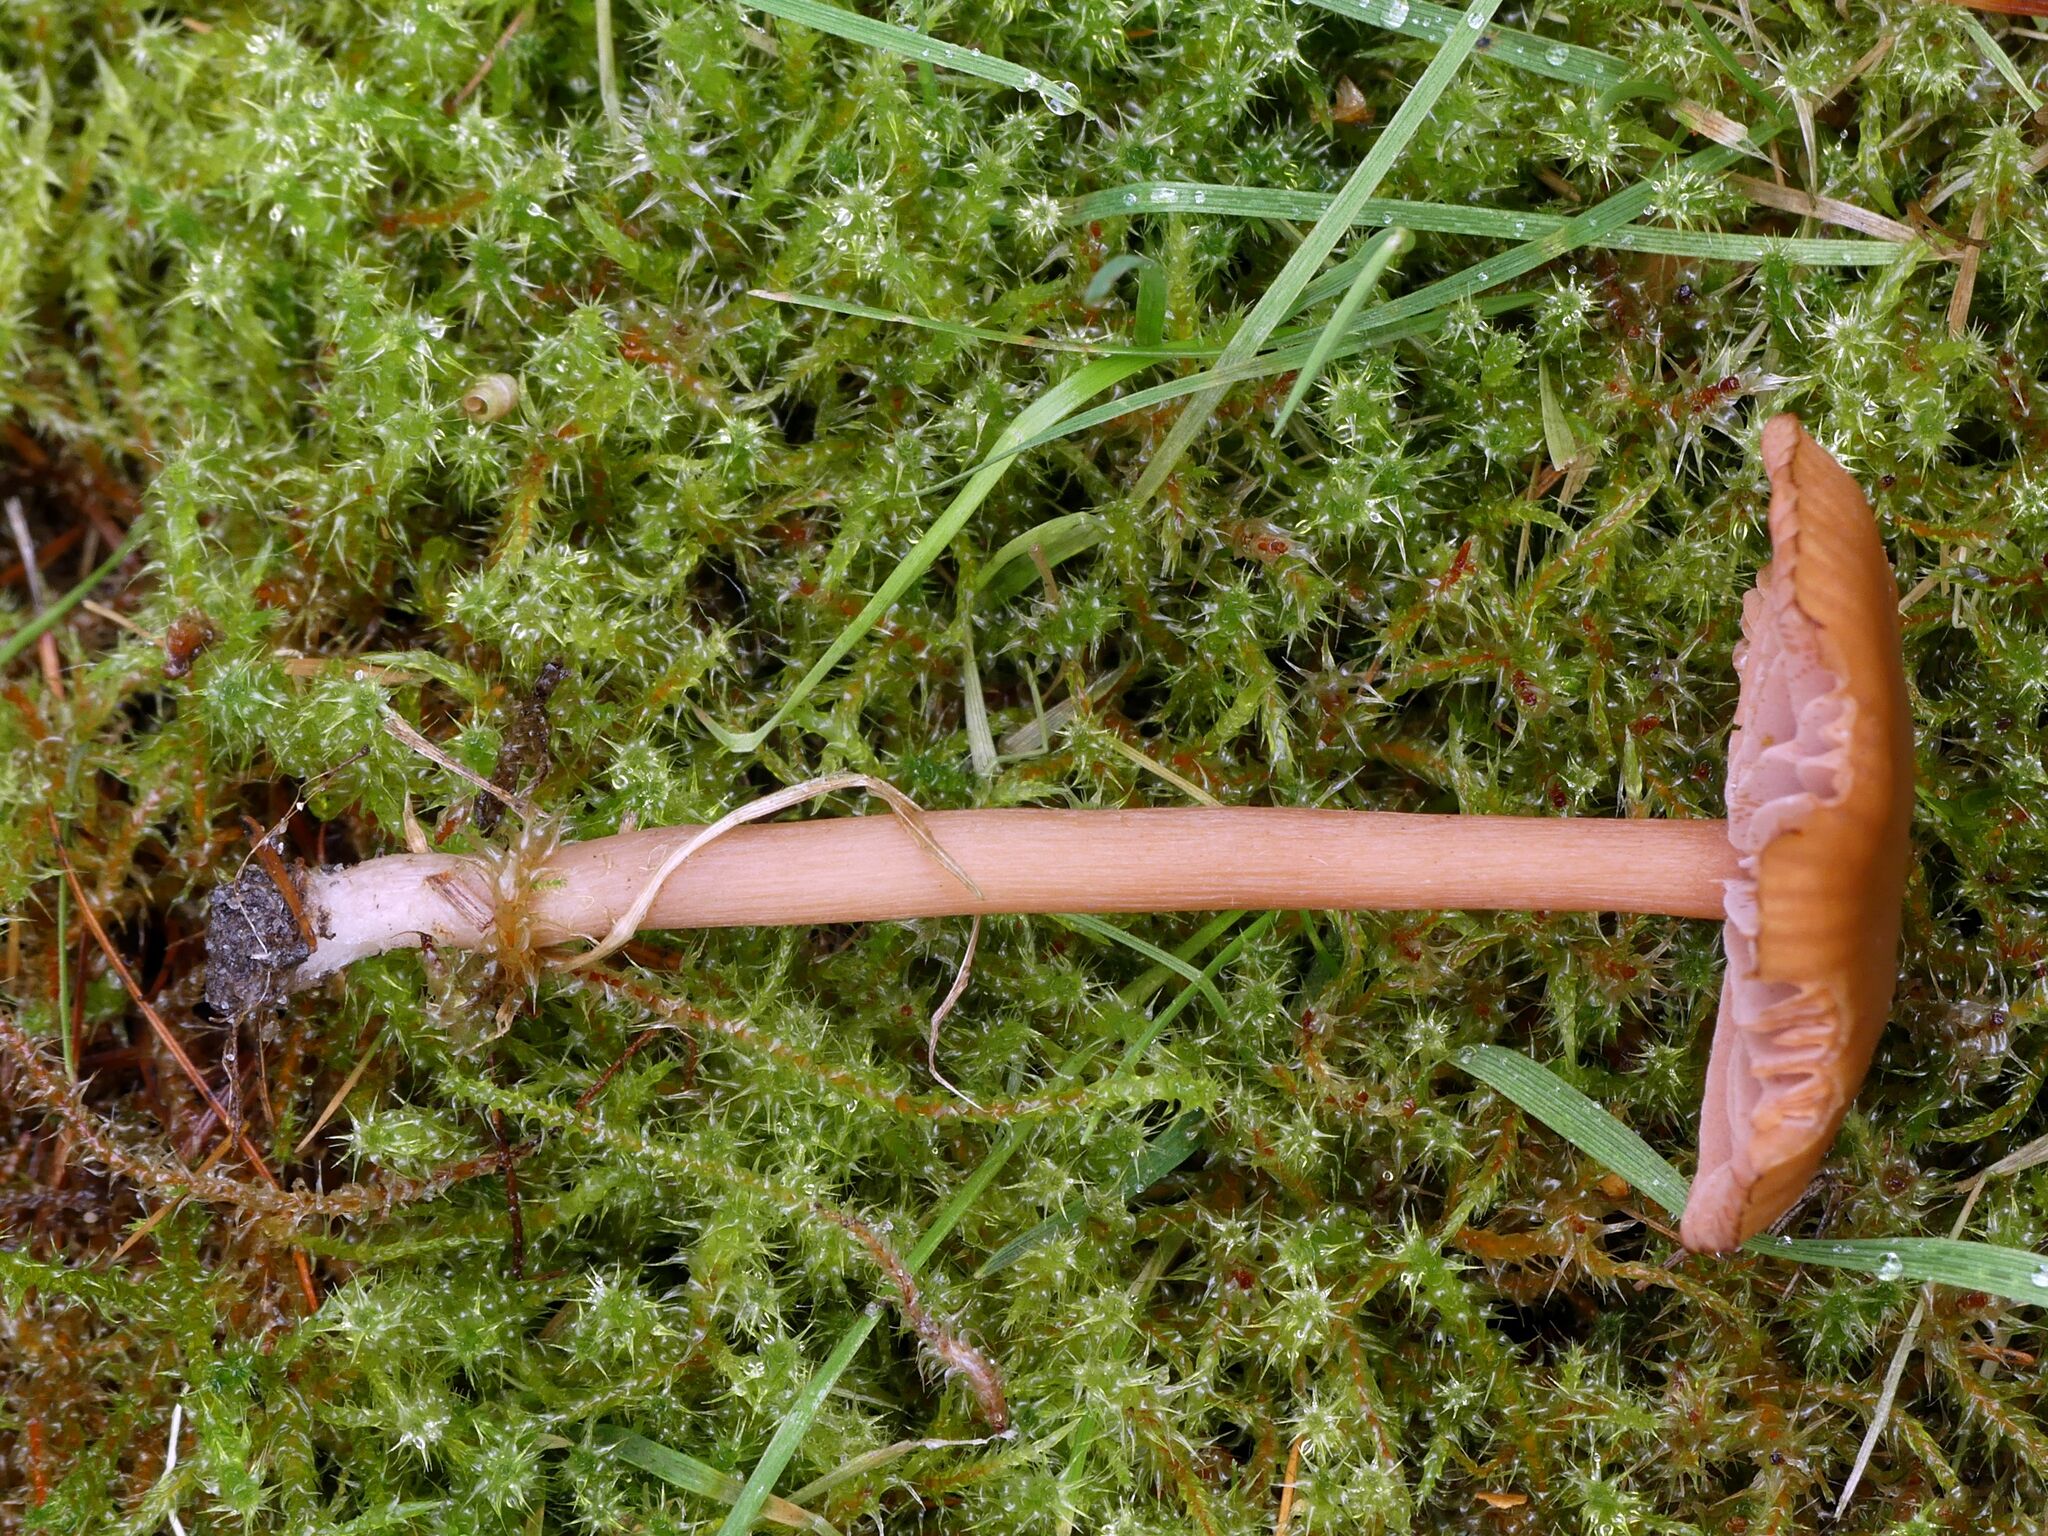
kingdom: Fungi
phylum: Basidiomycota
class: Agaricomycetes
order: Agaricales
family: Hydnangiaceae
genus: Laccaria
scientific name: Laccaria laccata
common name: Deceiver
